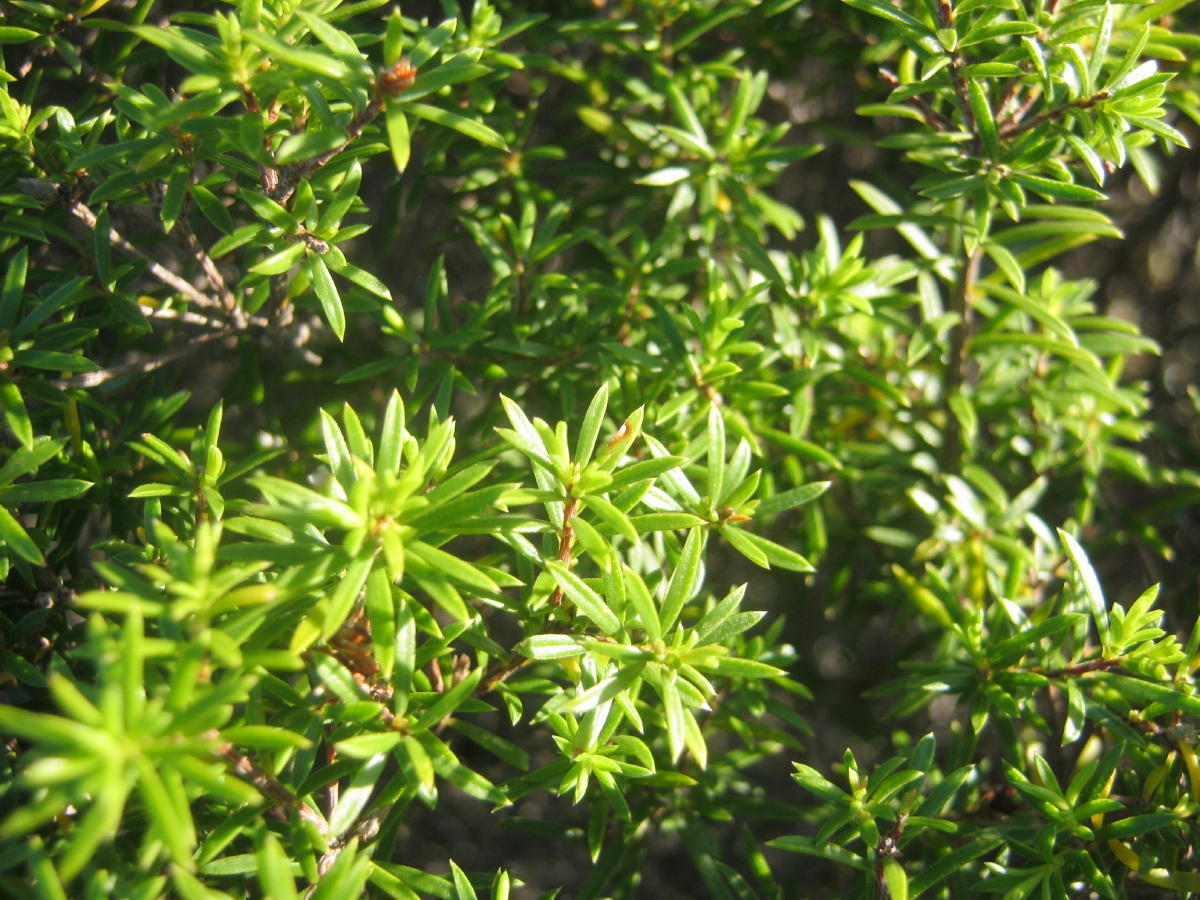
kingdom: Plantae
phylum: Tracheophyta
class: Magnoliopsida
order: Sapindales
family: Rutaceae
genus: Coleonema
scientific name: Coleonema album
